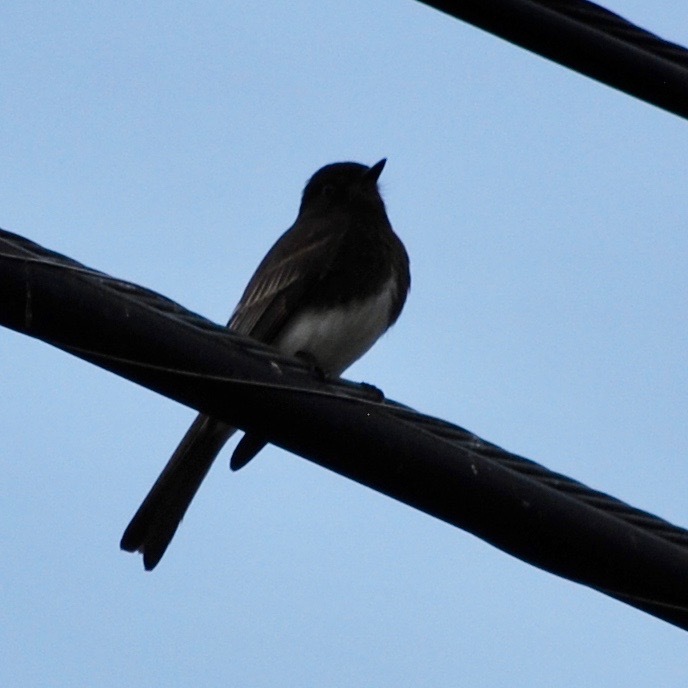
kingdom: Animalia
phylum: Chordata
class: Aves
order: Passeriformes
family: Tyrannidae
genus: Sayornis
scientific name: Sayornis nigricans
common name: Black phoebe
